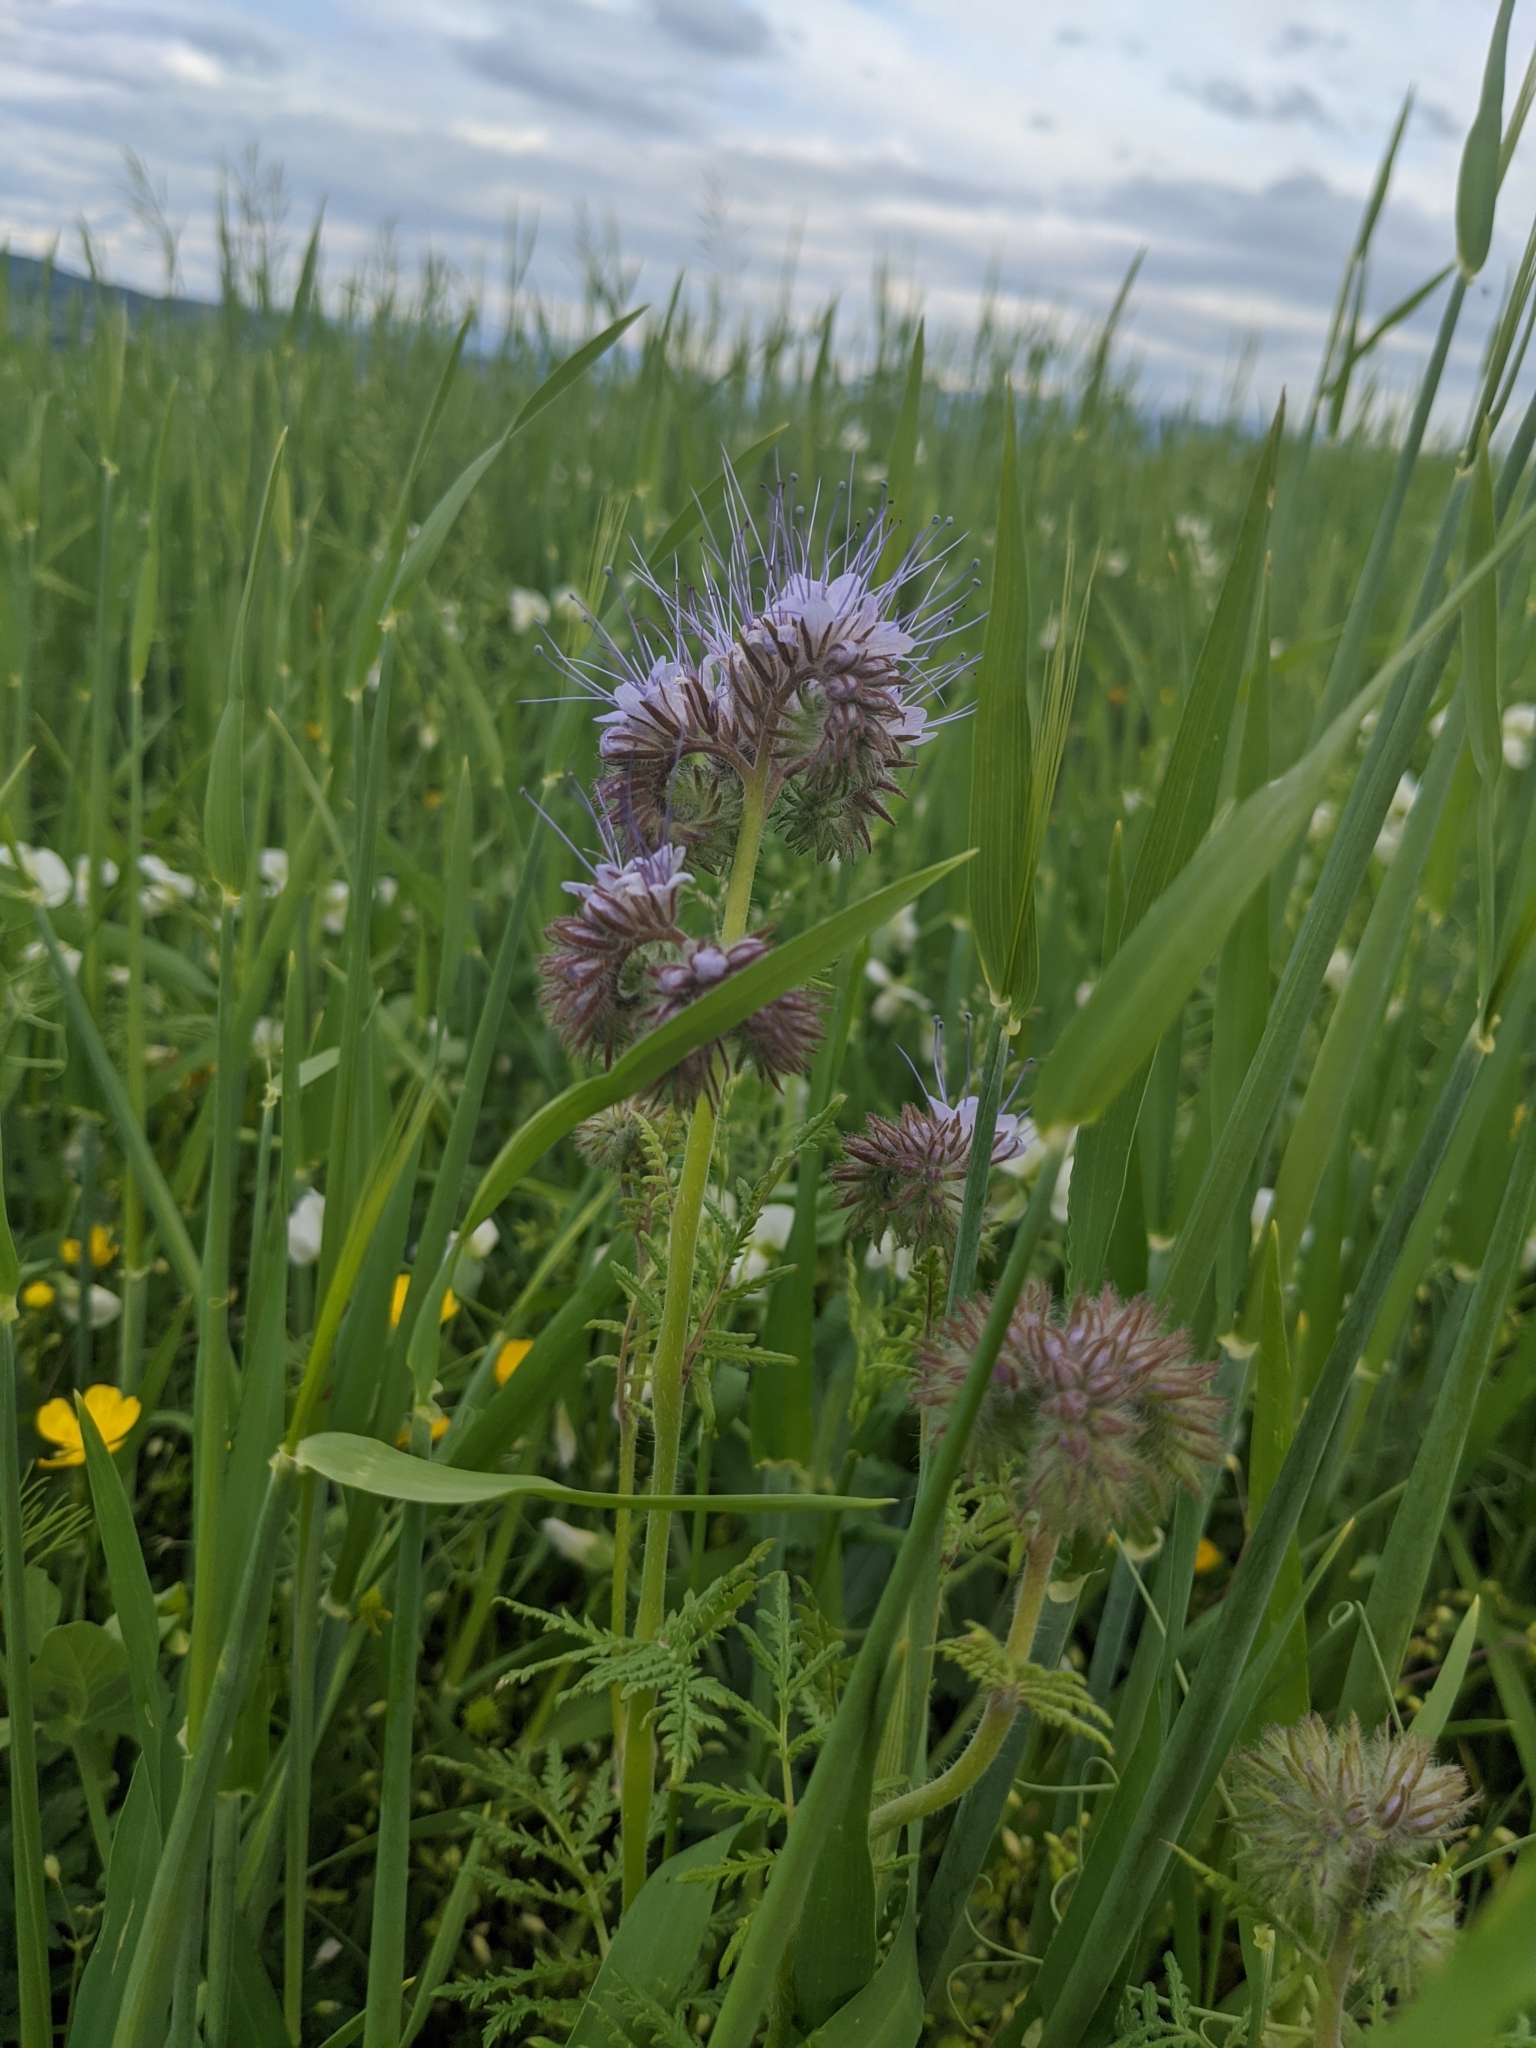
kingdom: Plantae
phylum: Tracheophyta
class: Magnoliopsida
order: Boraginales
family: Hydrophyllaceae
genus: Phacelia
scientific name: Phacelia tanacetifolia
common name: Phacelia
